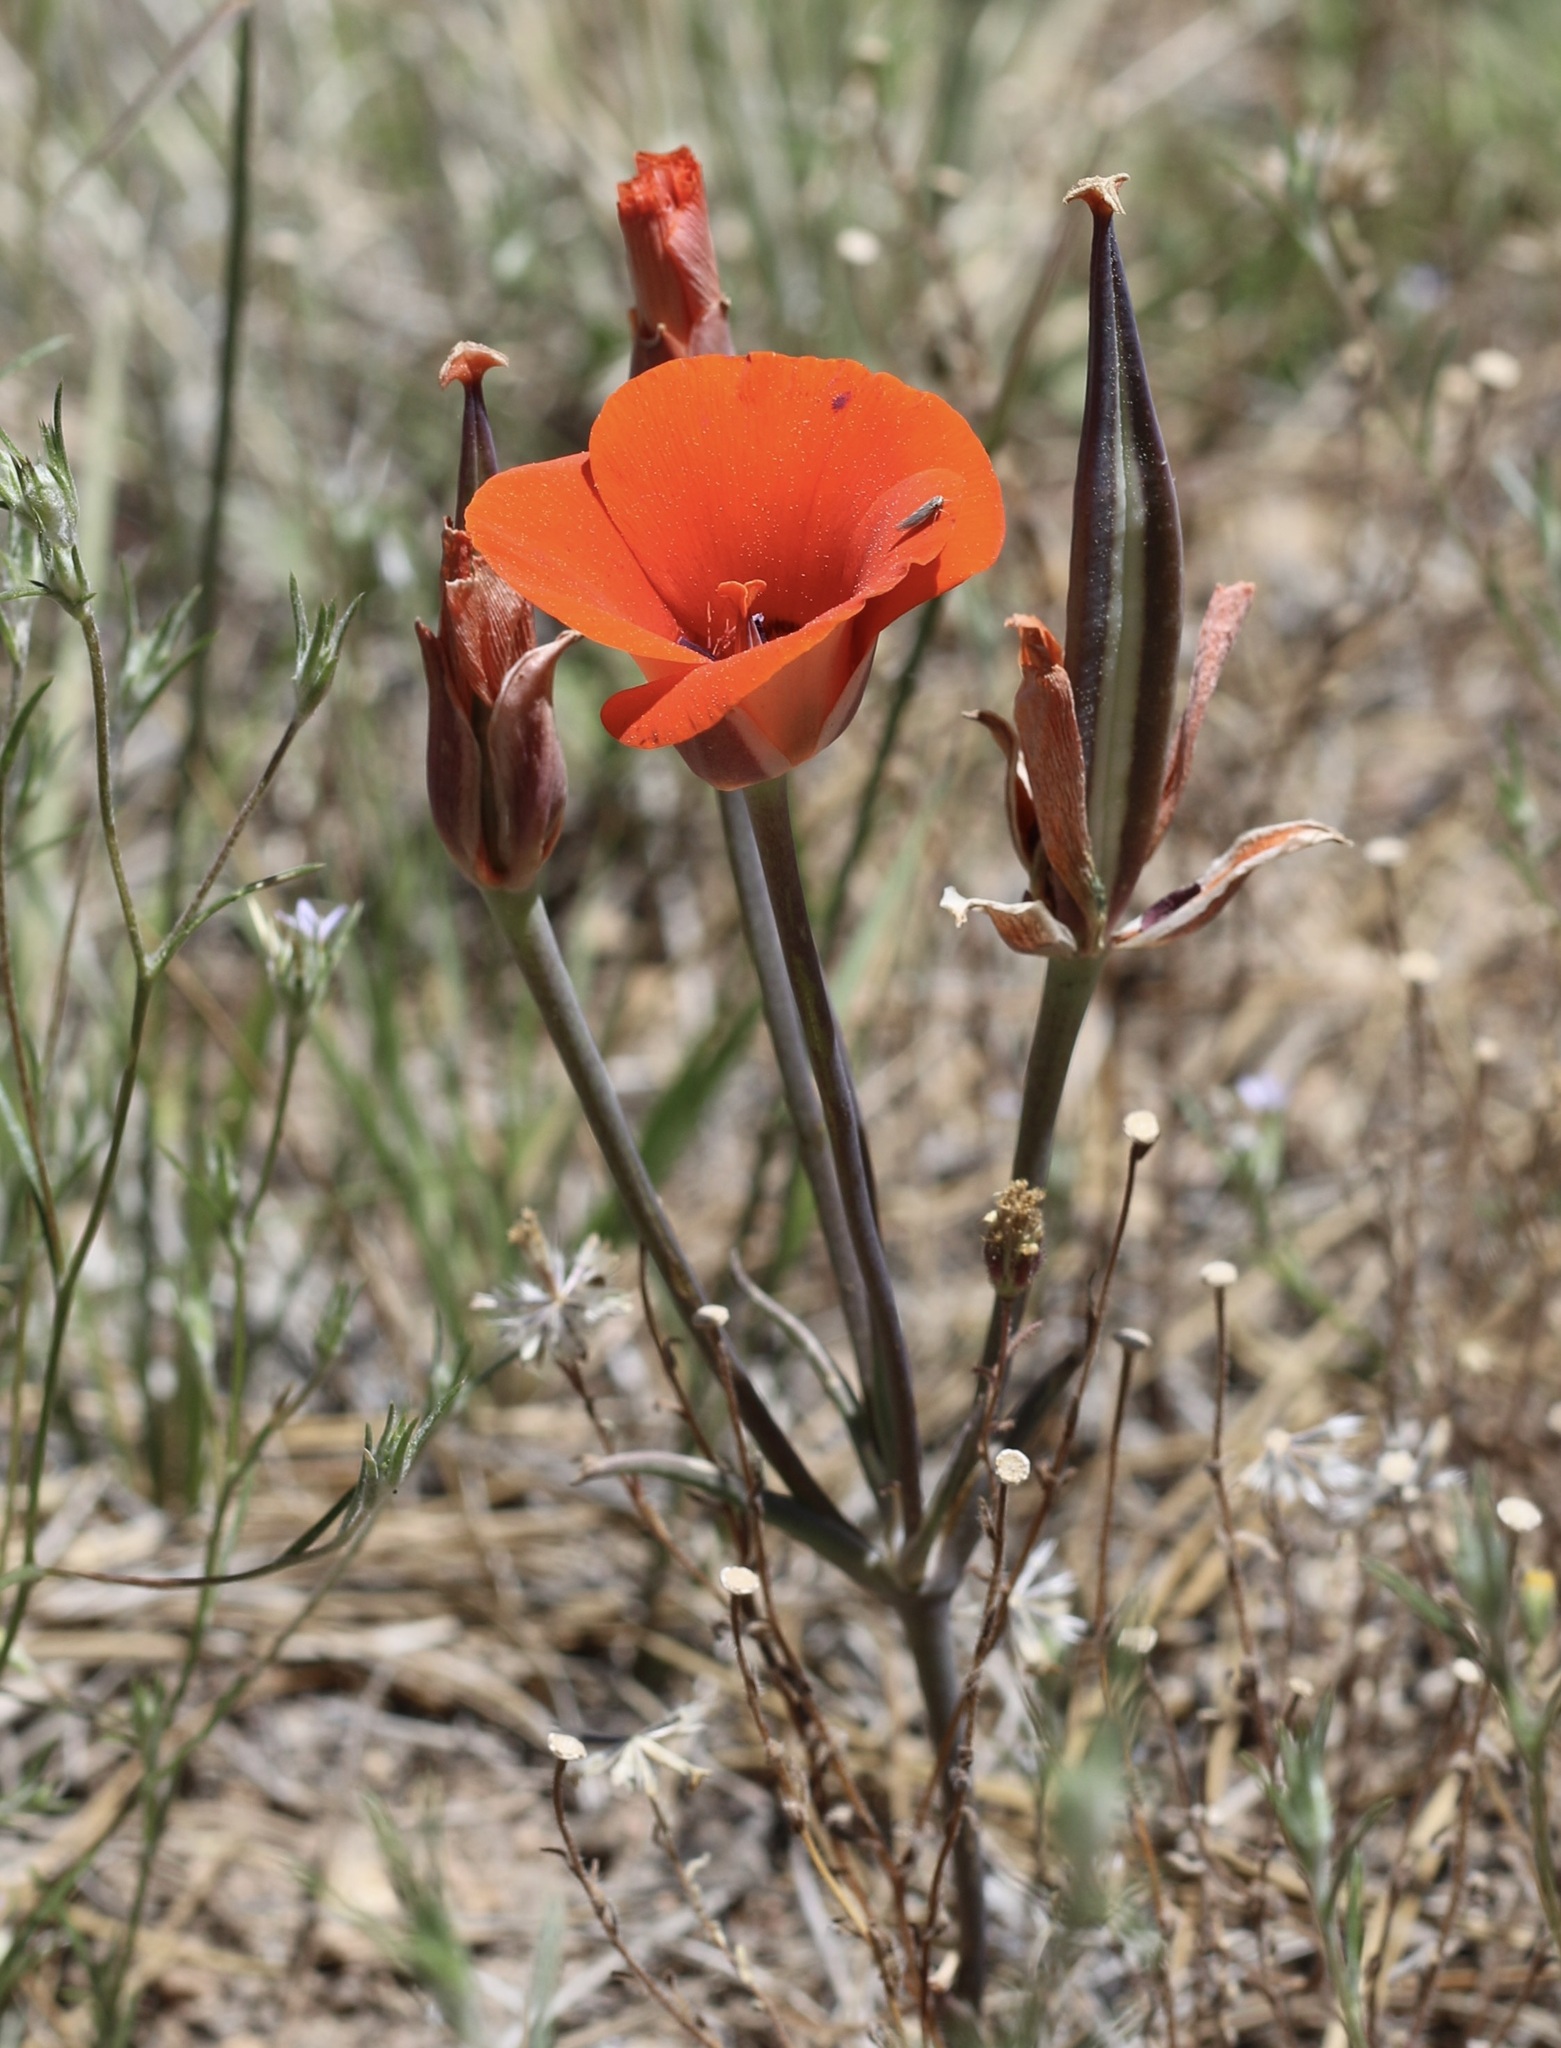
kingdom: Plantae
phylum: Tracheophyta
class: Liliopsida
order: Liliales
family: Liliaceae
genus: Calochortus
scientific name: Calochortus kennedyi
